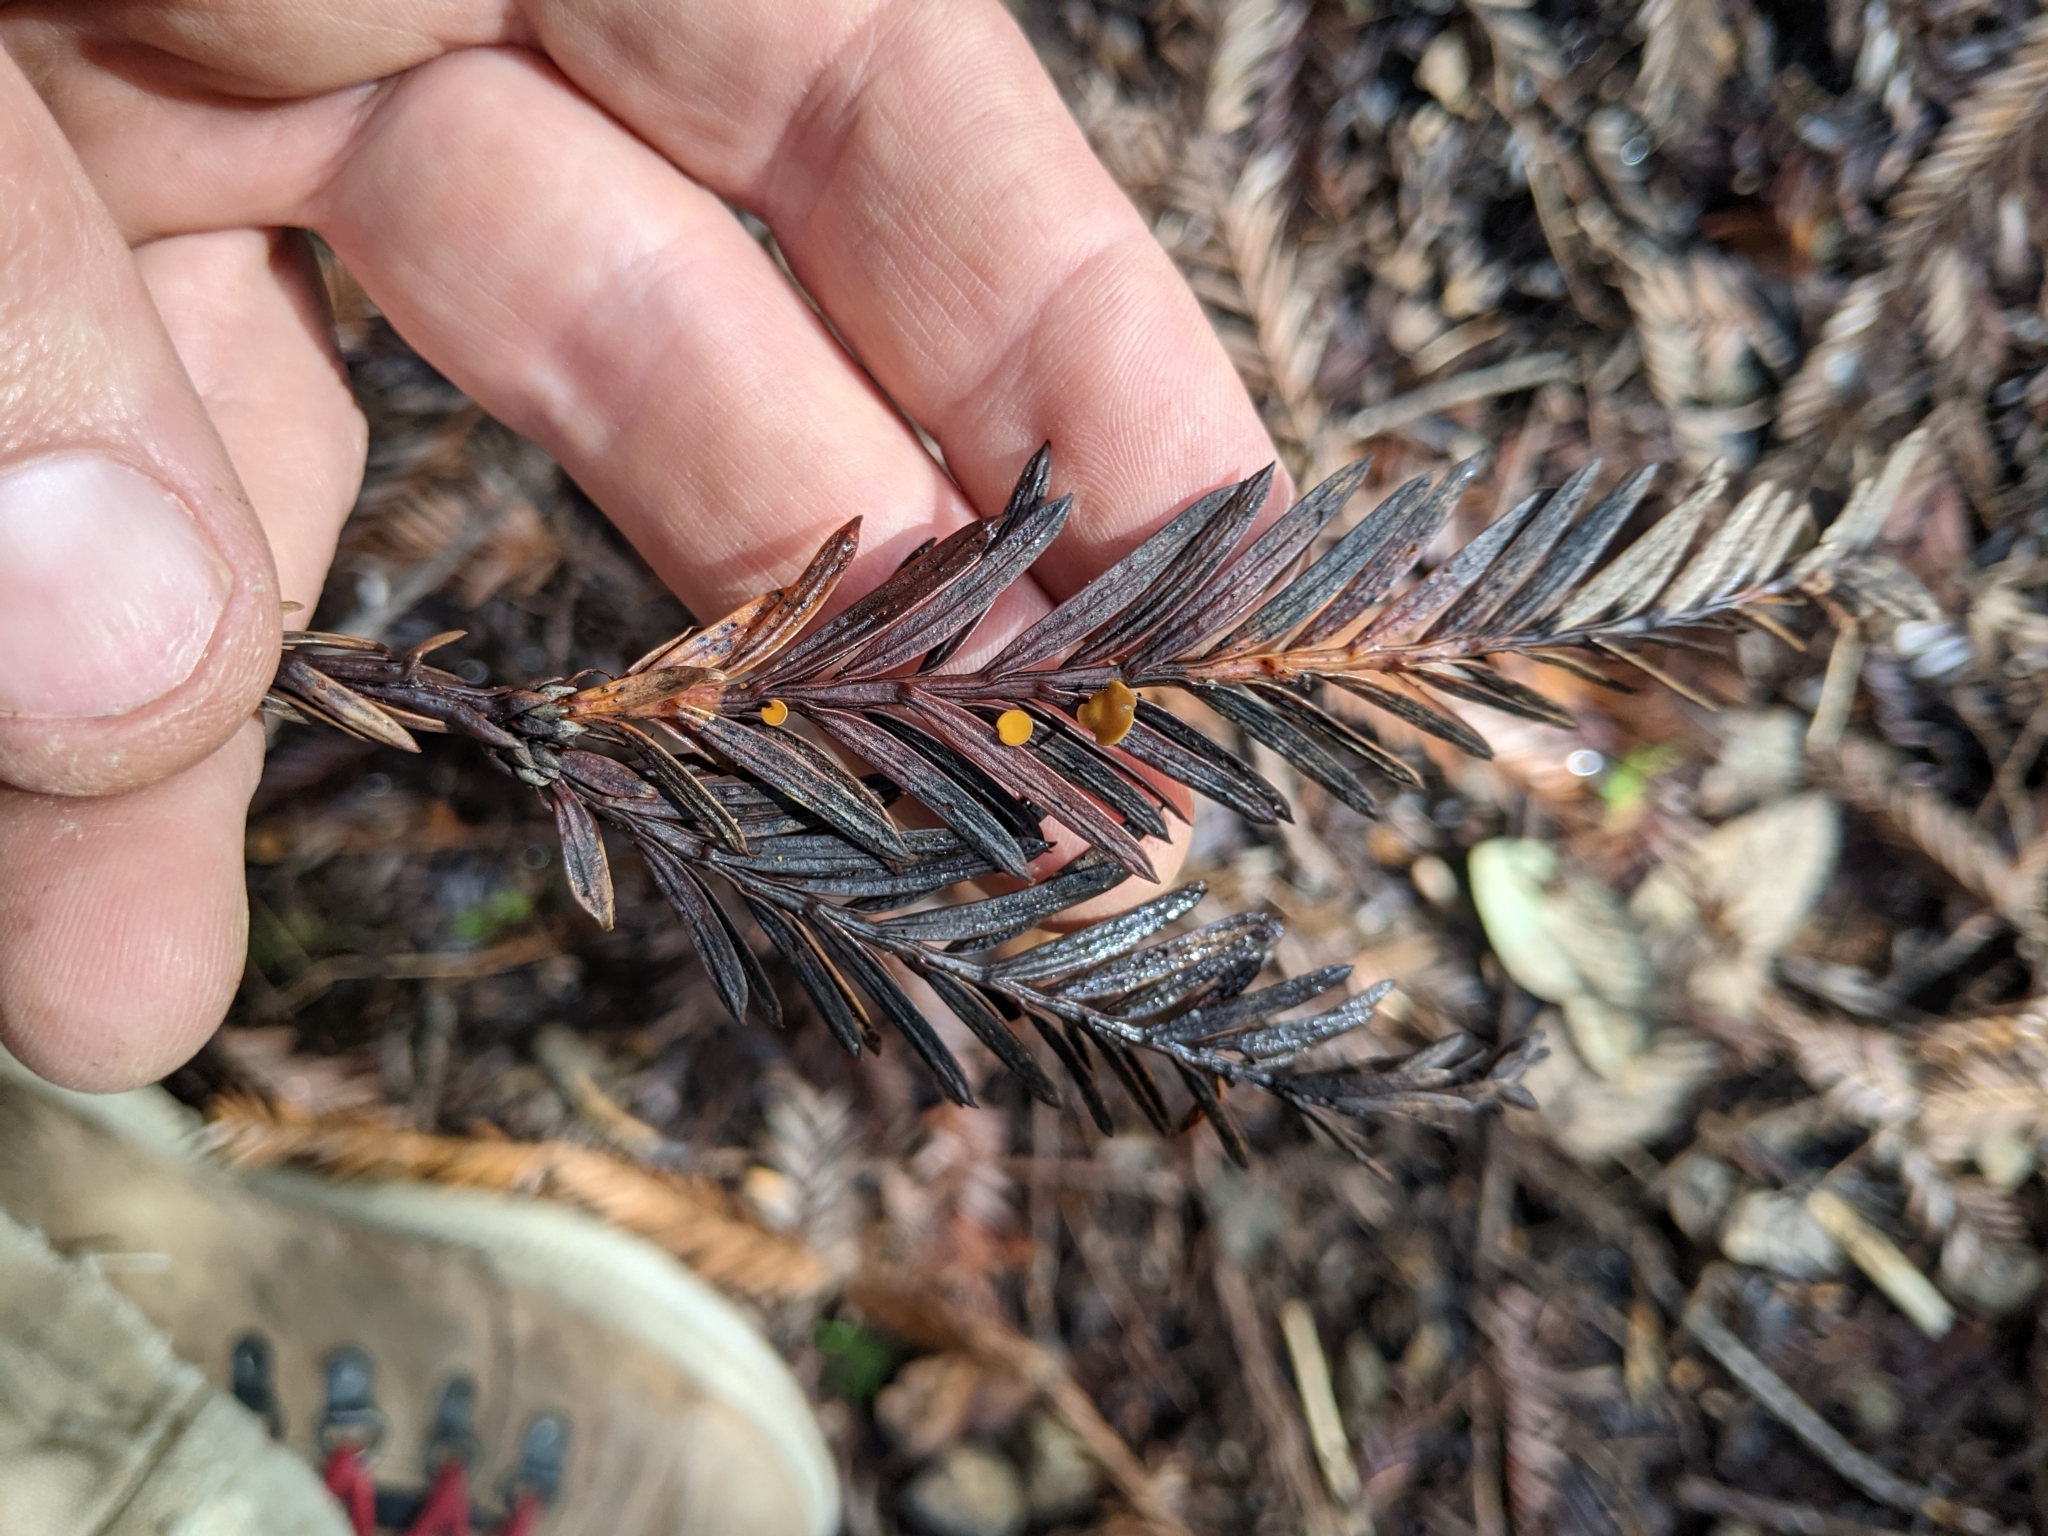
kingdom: Fungi
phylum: Ascomycota
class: Pezizomycetes
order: Pezizales
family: Sarcoscyphaceae
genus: Pithya
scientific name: Pithya cupressina
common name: Juniper disco
